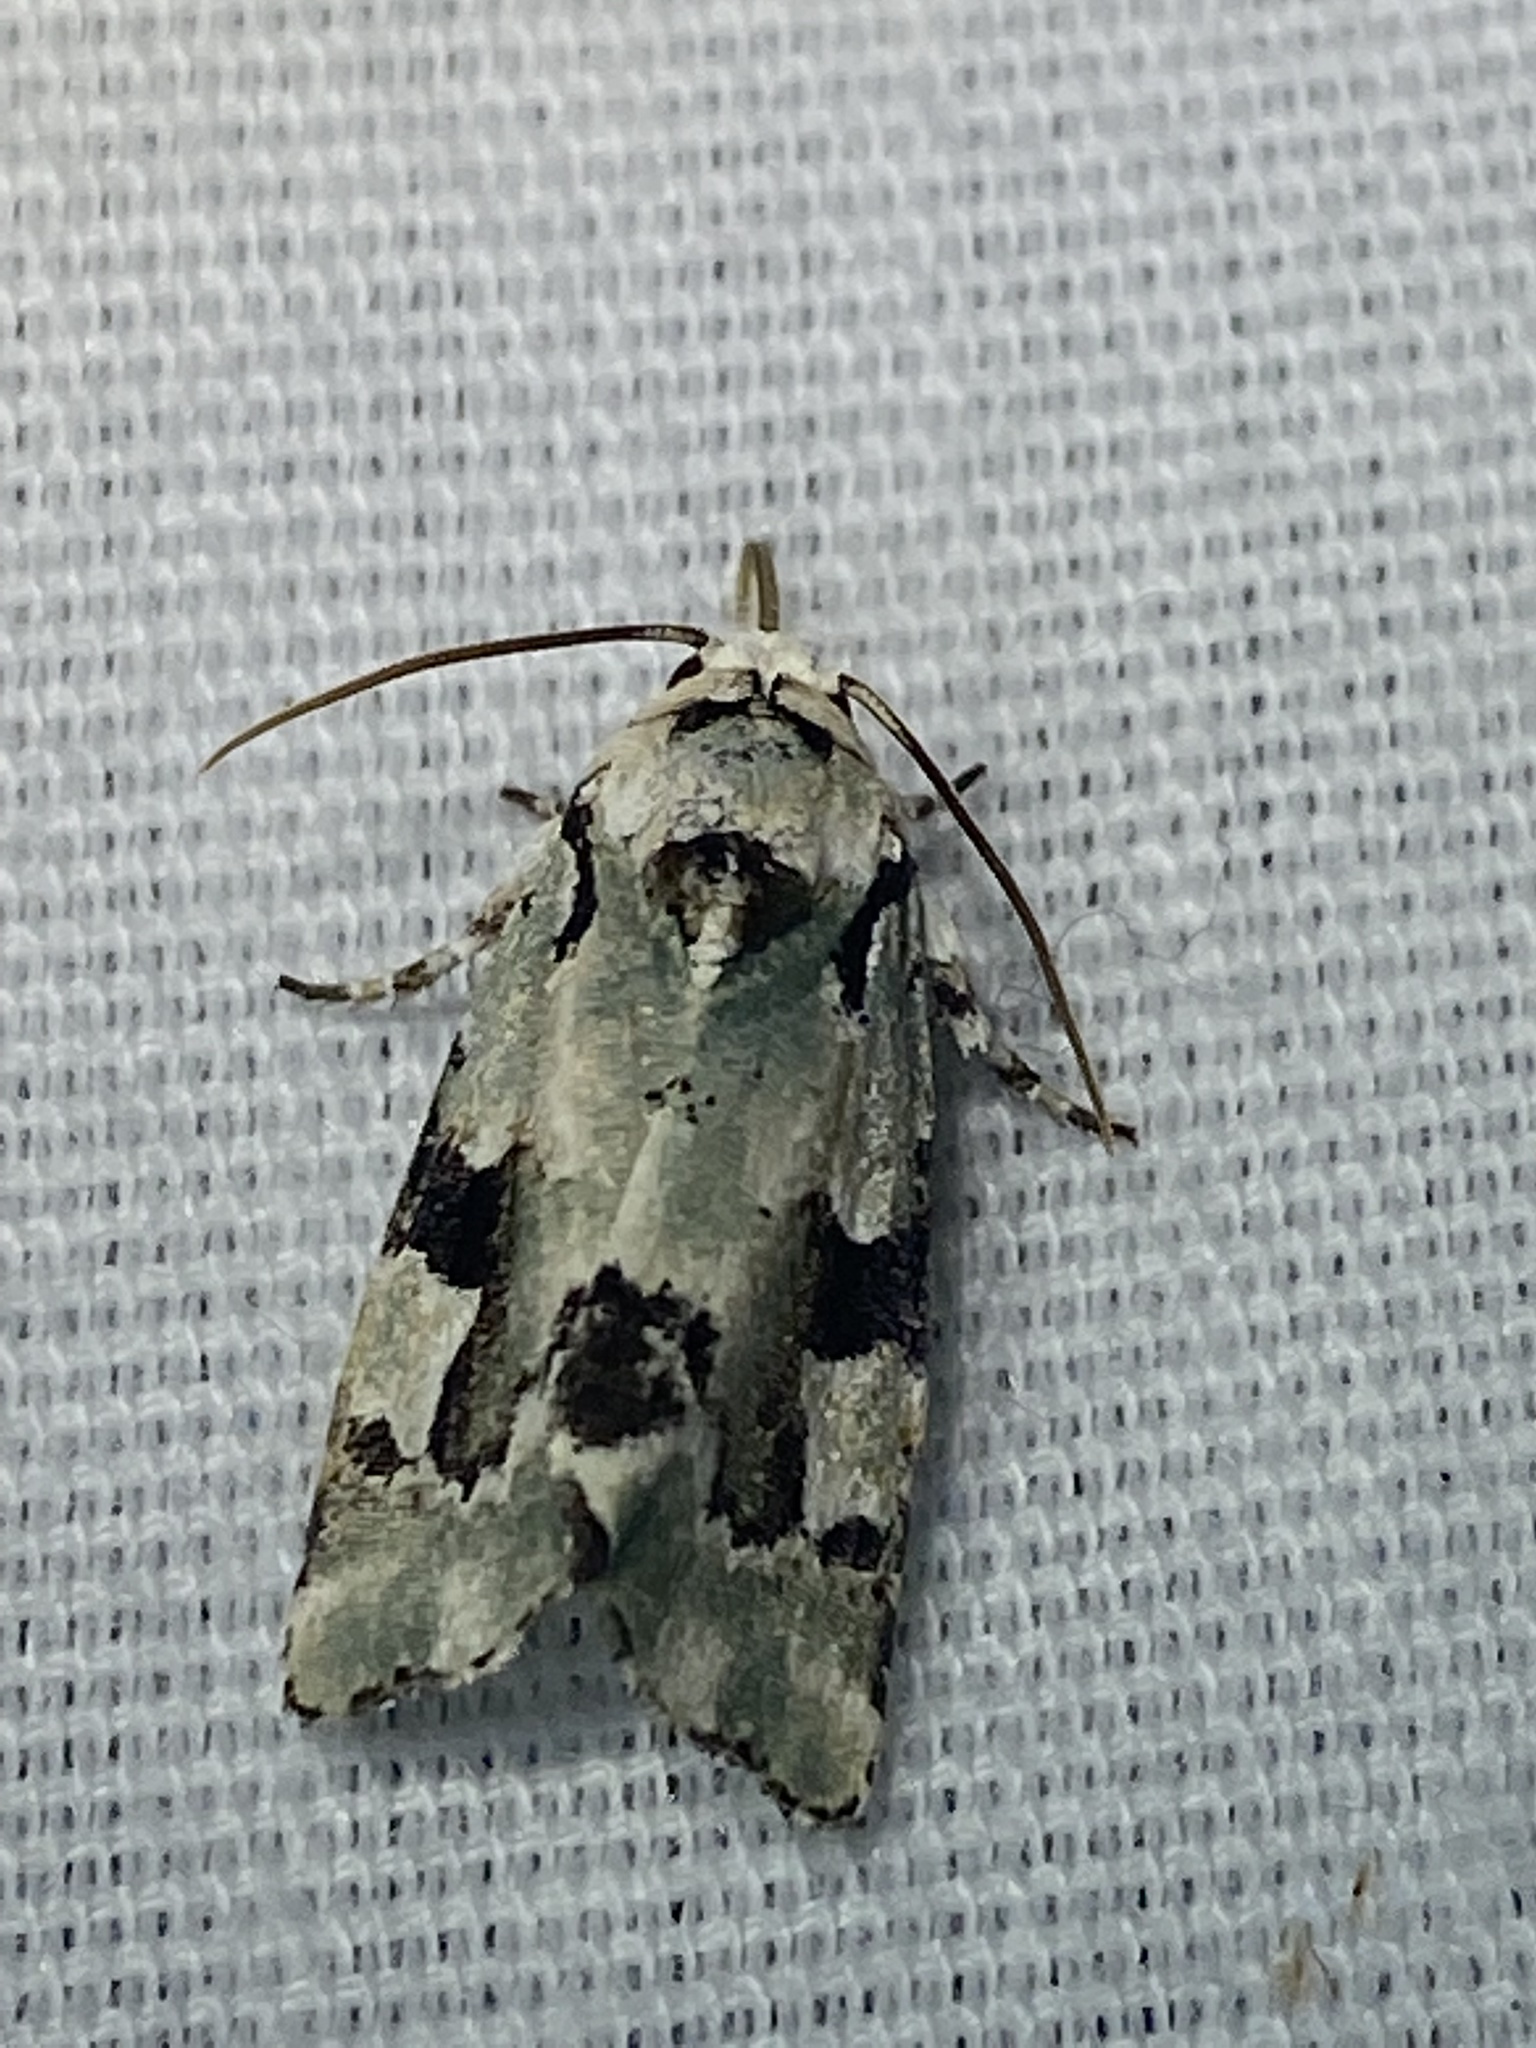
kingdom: Animalia
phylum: Arthropoda
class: Insecta
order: Lepidoptera
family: Noctuidae
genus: Emarginea
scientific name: Emarginea percara
